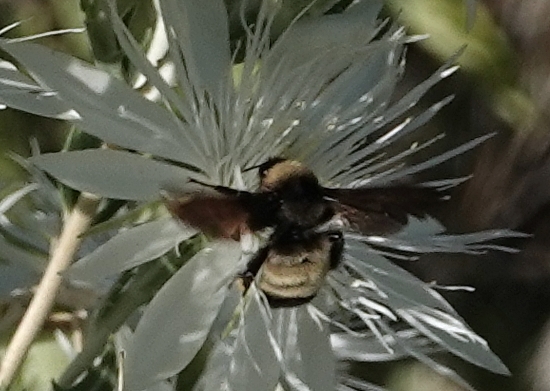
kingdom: Animalia
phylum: Arthropoda
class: Insecta
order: Hymenoptera
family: Apidae
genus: Bombus
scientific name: Bombus pensylvanicus
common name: Bumble bee
